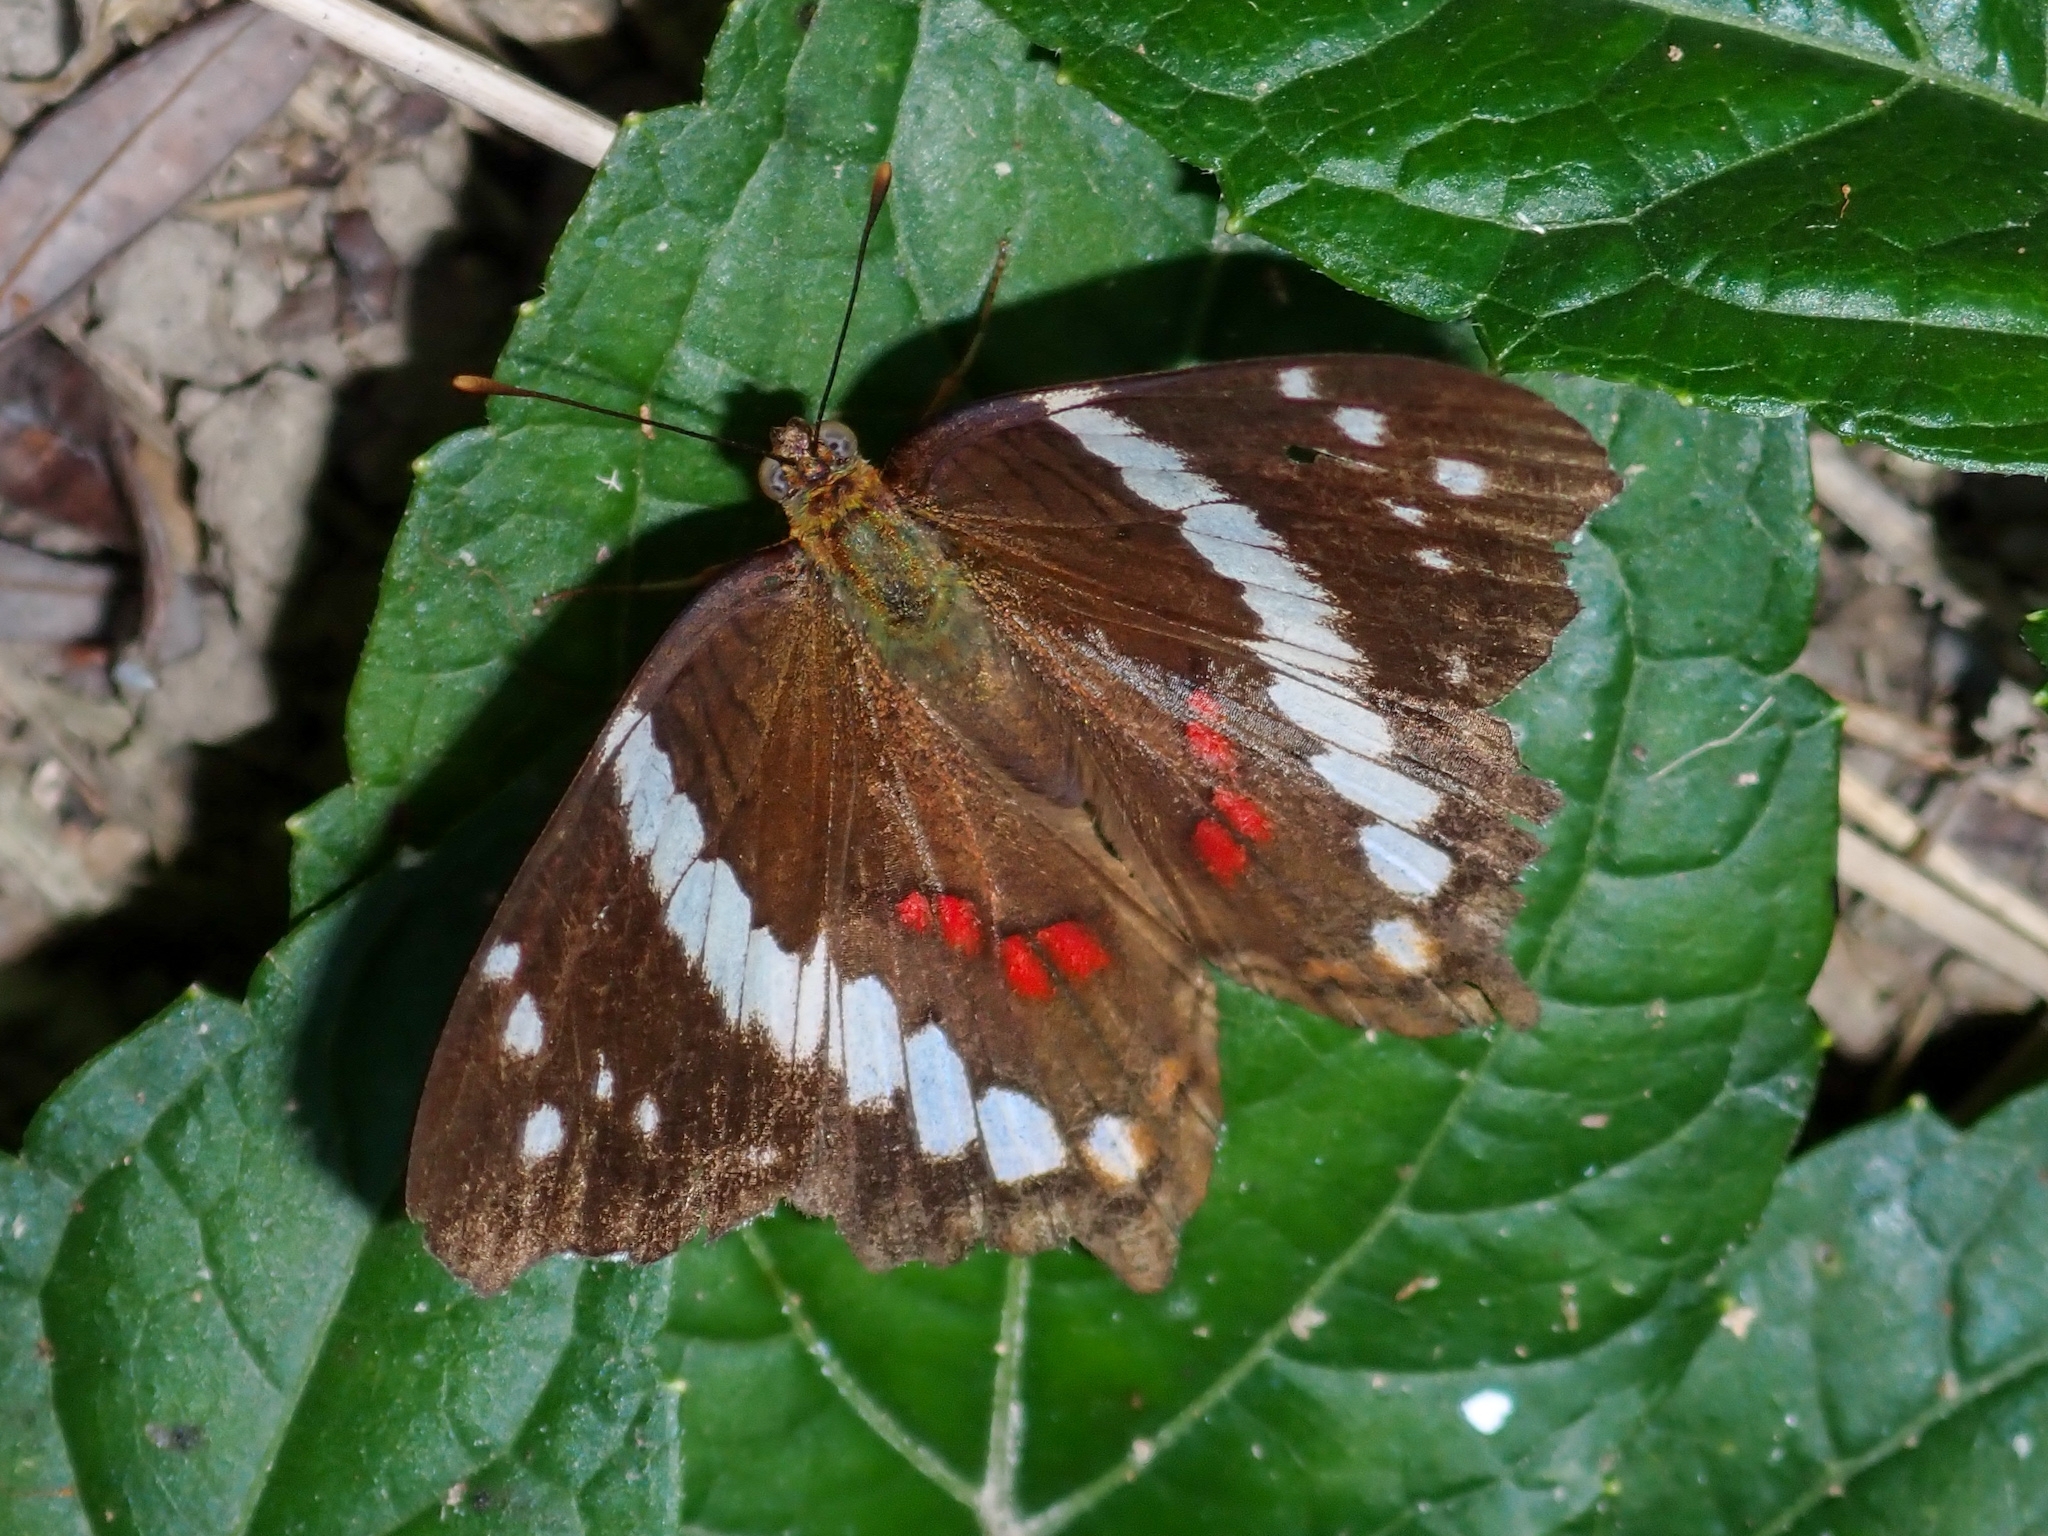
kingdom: Animalia
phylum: Arthropoda
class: Insecta
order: Lepidoptera
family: Nymphalidae
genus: Anartia
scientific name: Anartia fatima
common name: Banded peacock
